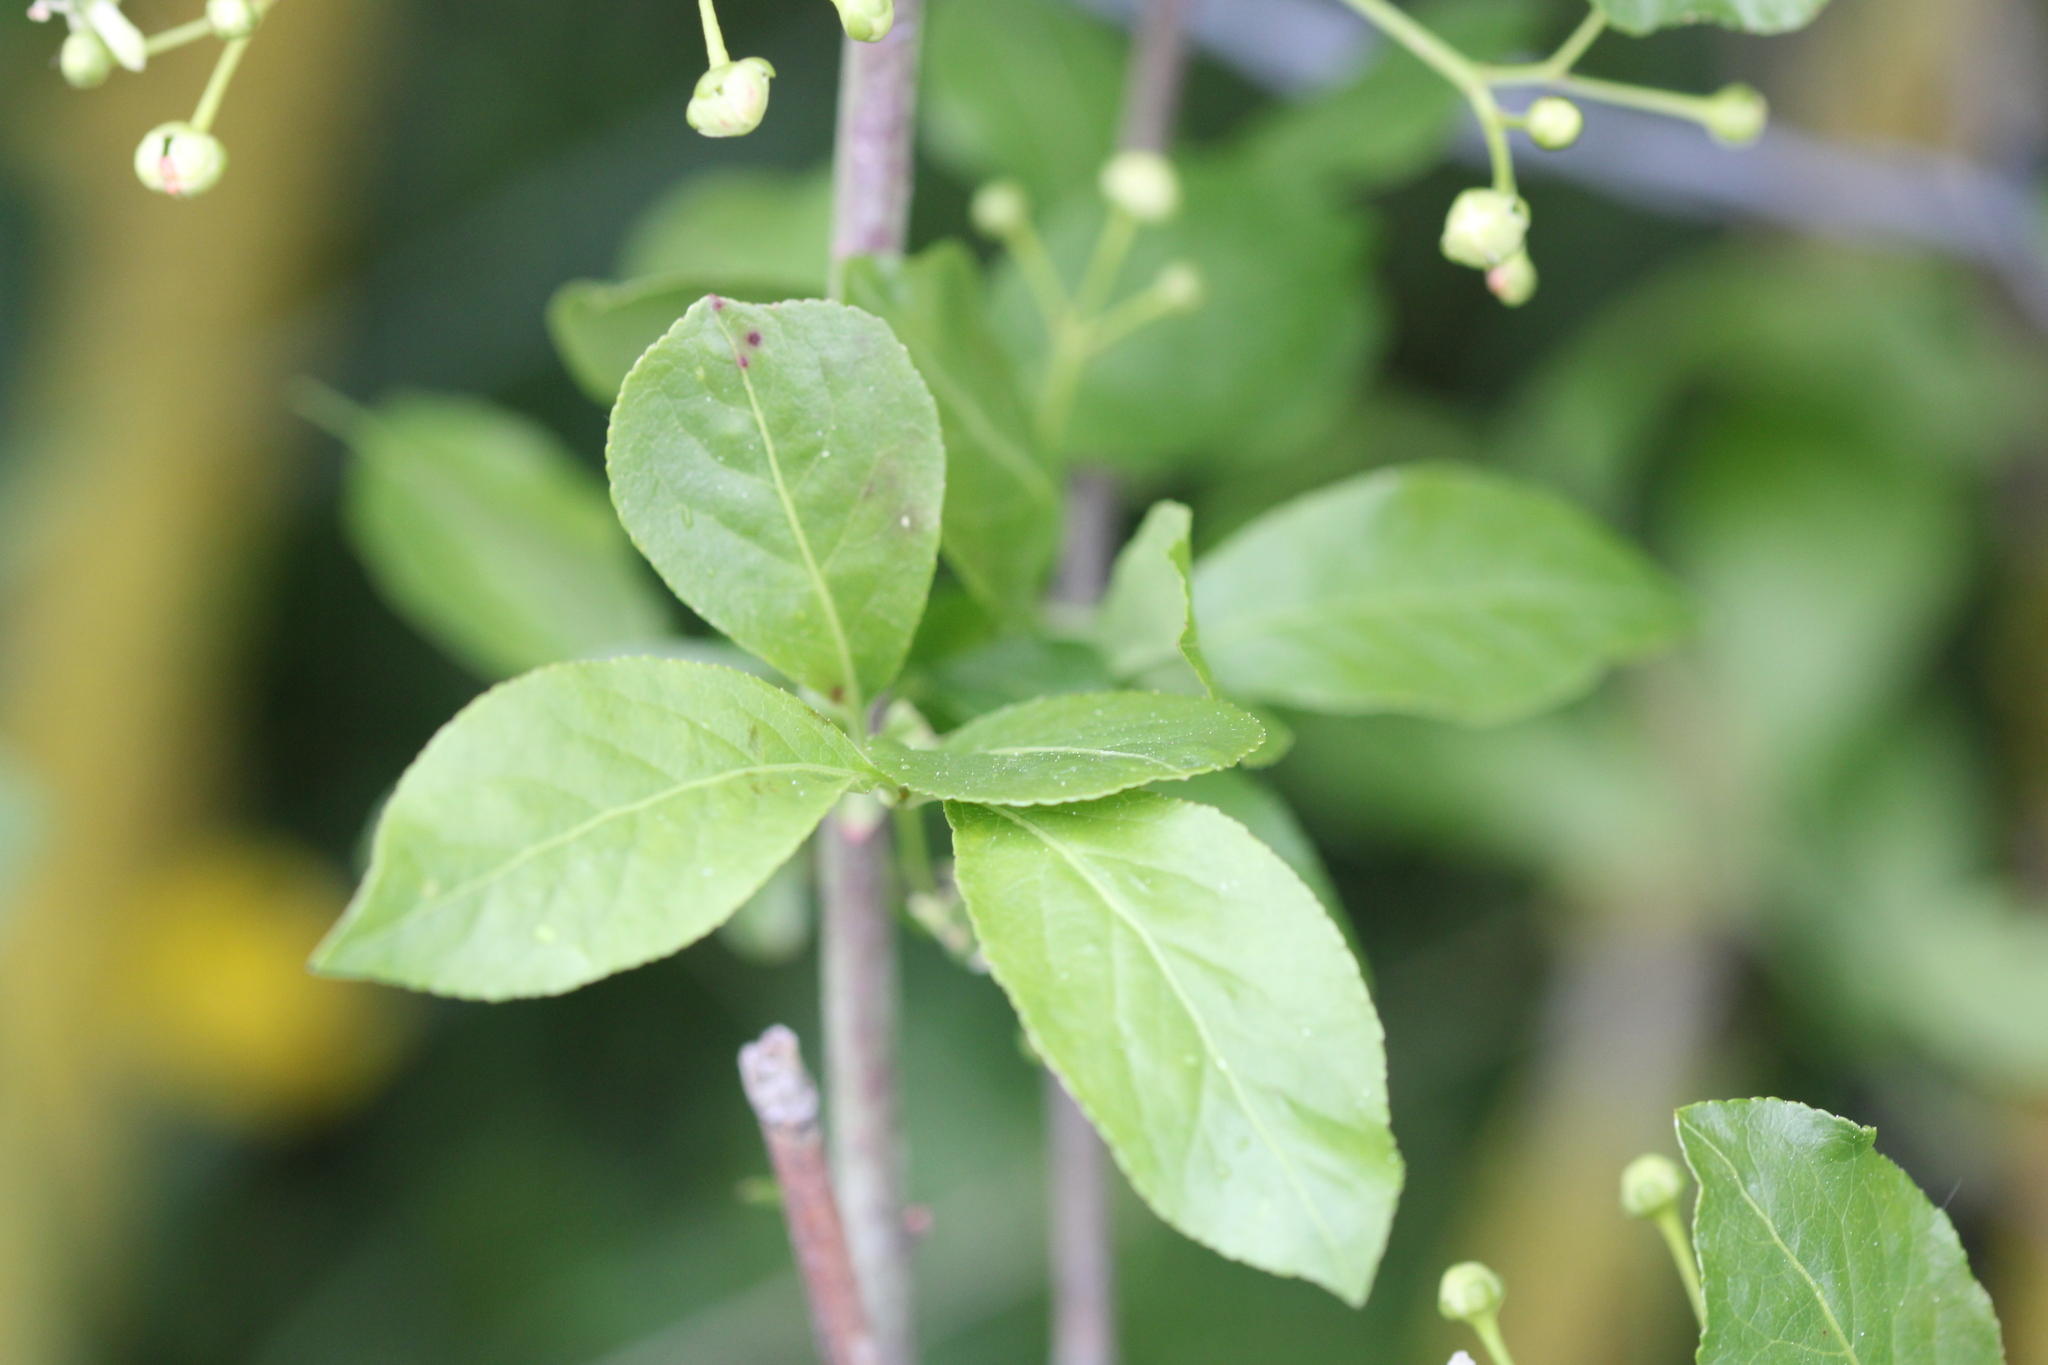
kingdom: Plantae
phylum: Tracheophyta
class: Magnoliopsida
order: Celastrales
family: Celastraceae
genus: Euonymus
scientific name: Euonymus europaeus
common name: Spindle
